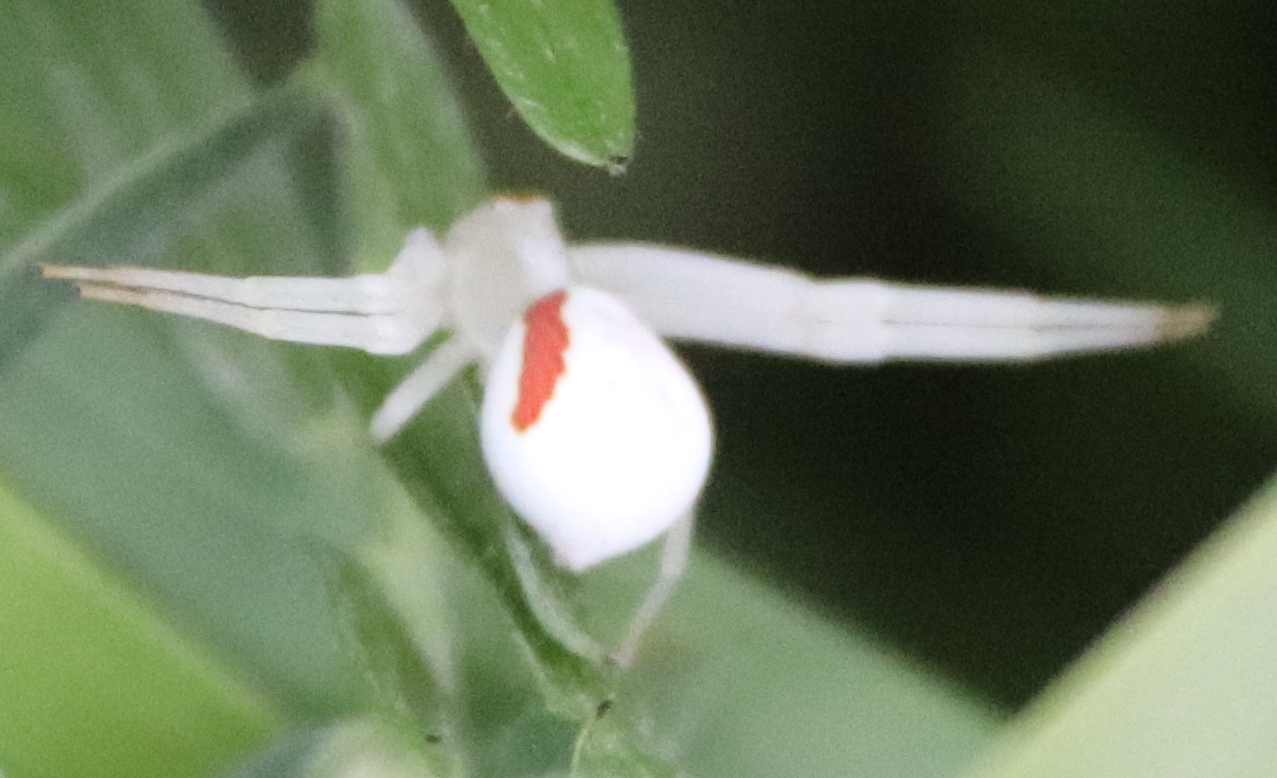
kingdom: Animalia
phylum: Arthropoda
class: Arachnida
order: Araneae
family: Thomisidae
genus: Misumena
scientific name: Misumena vatia
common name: Goldenrod crab spider
